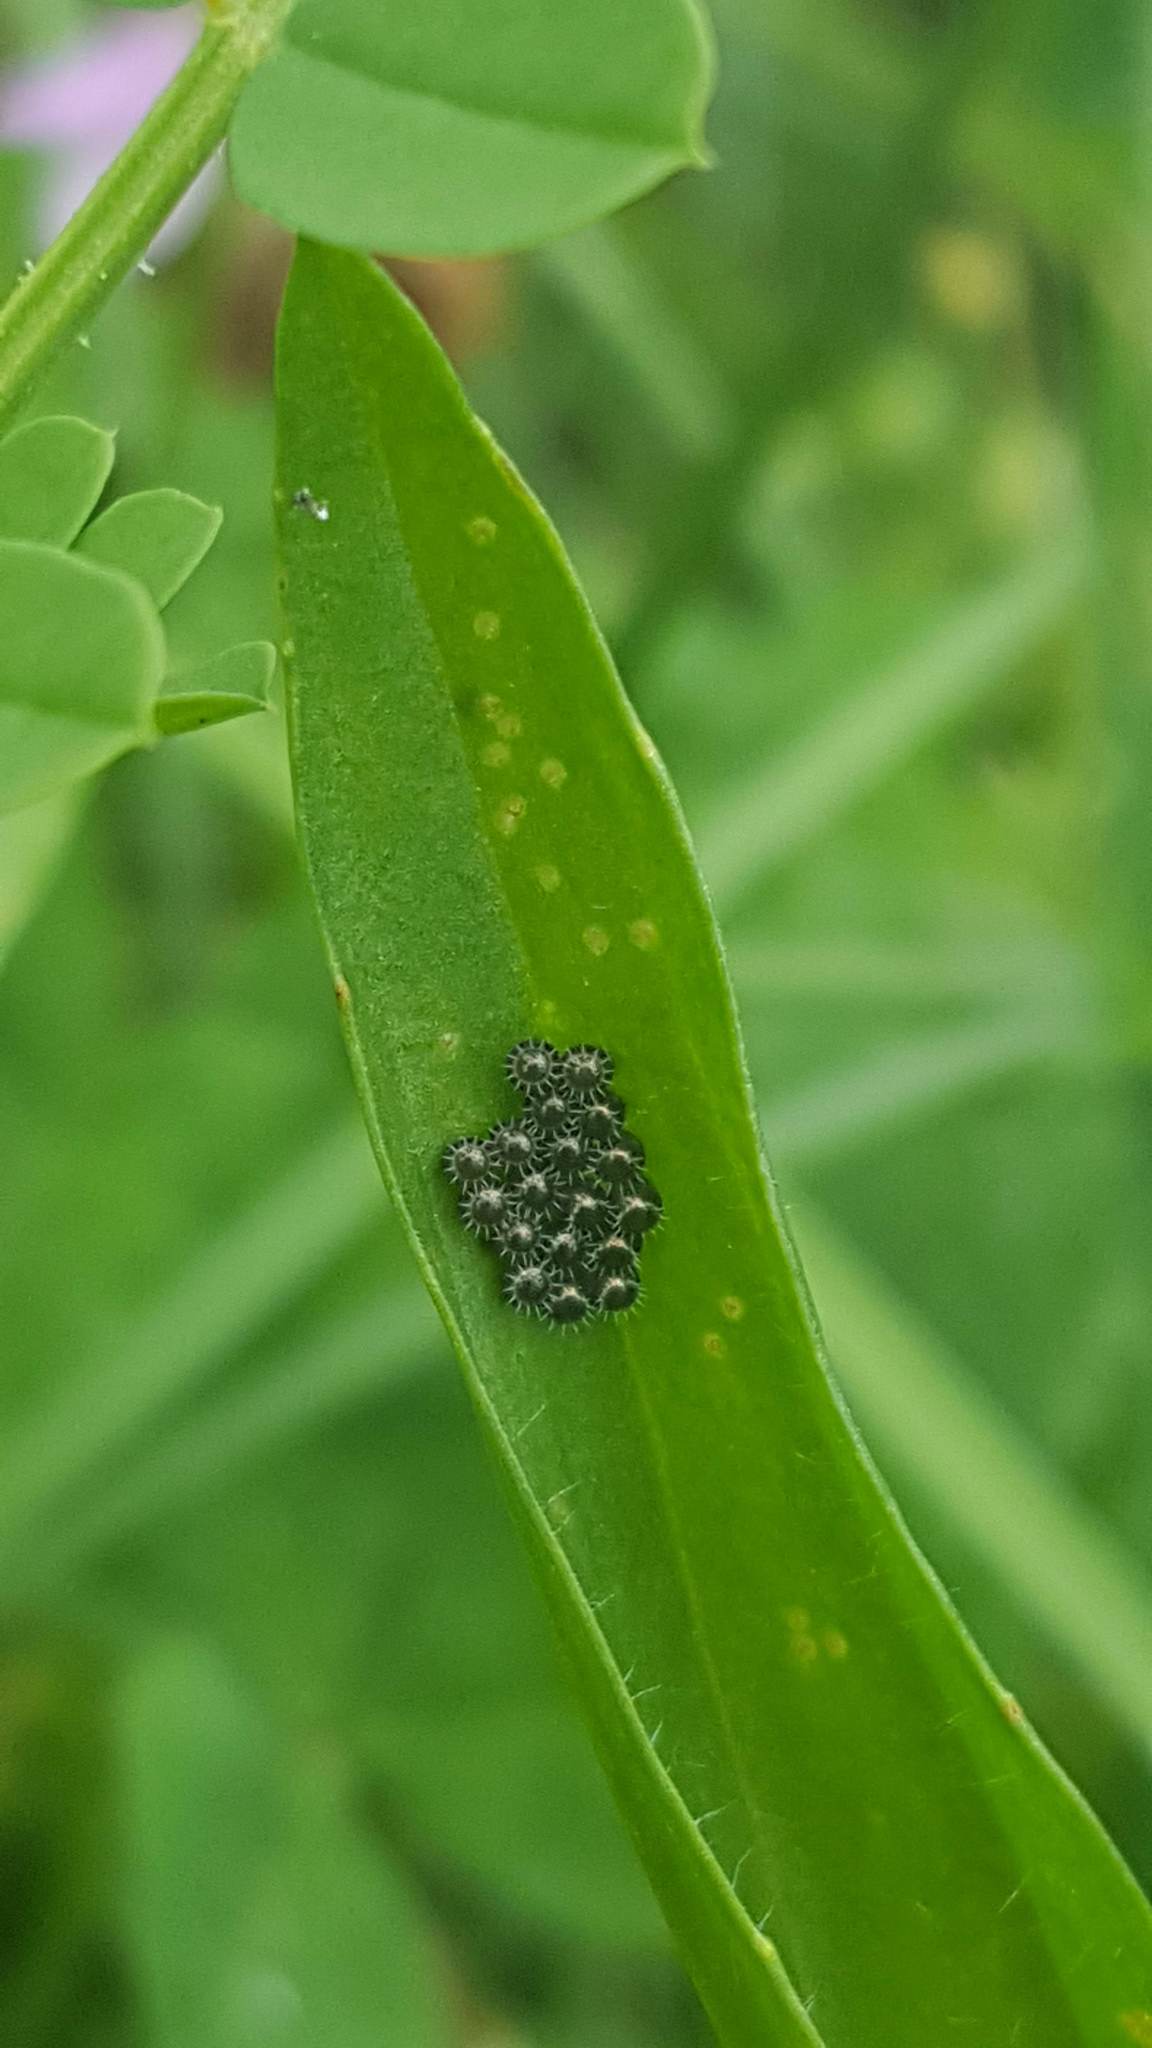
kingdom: Animalia
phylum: Arthropoda
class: Insecta
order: Hemiptera
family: Pentatomidae
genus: Podisus
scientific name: Podisus
